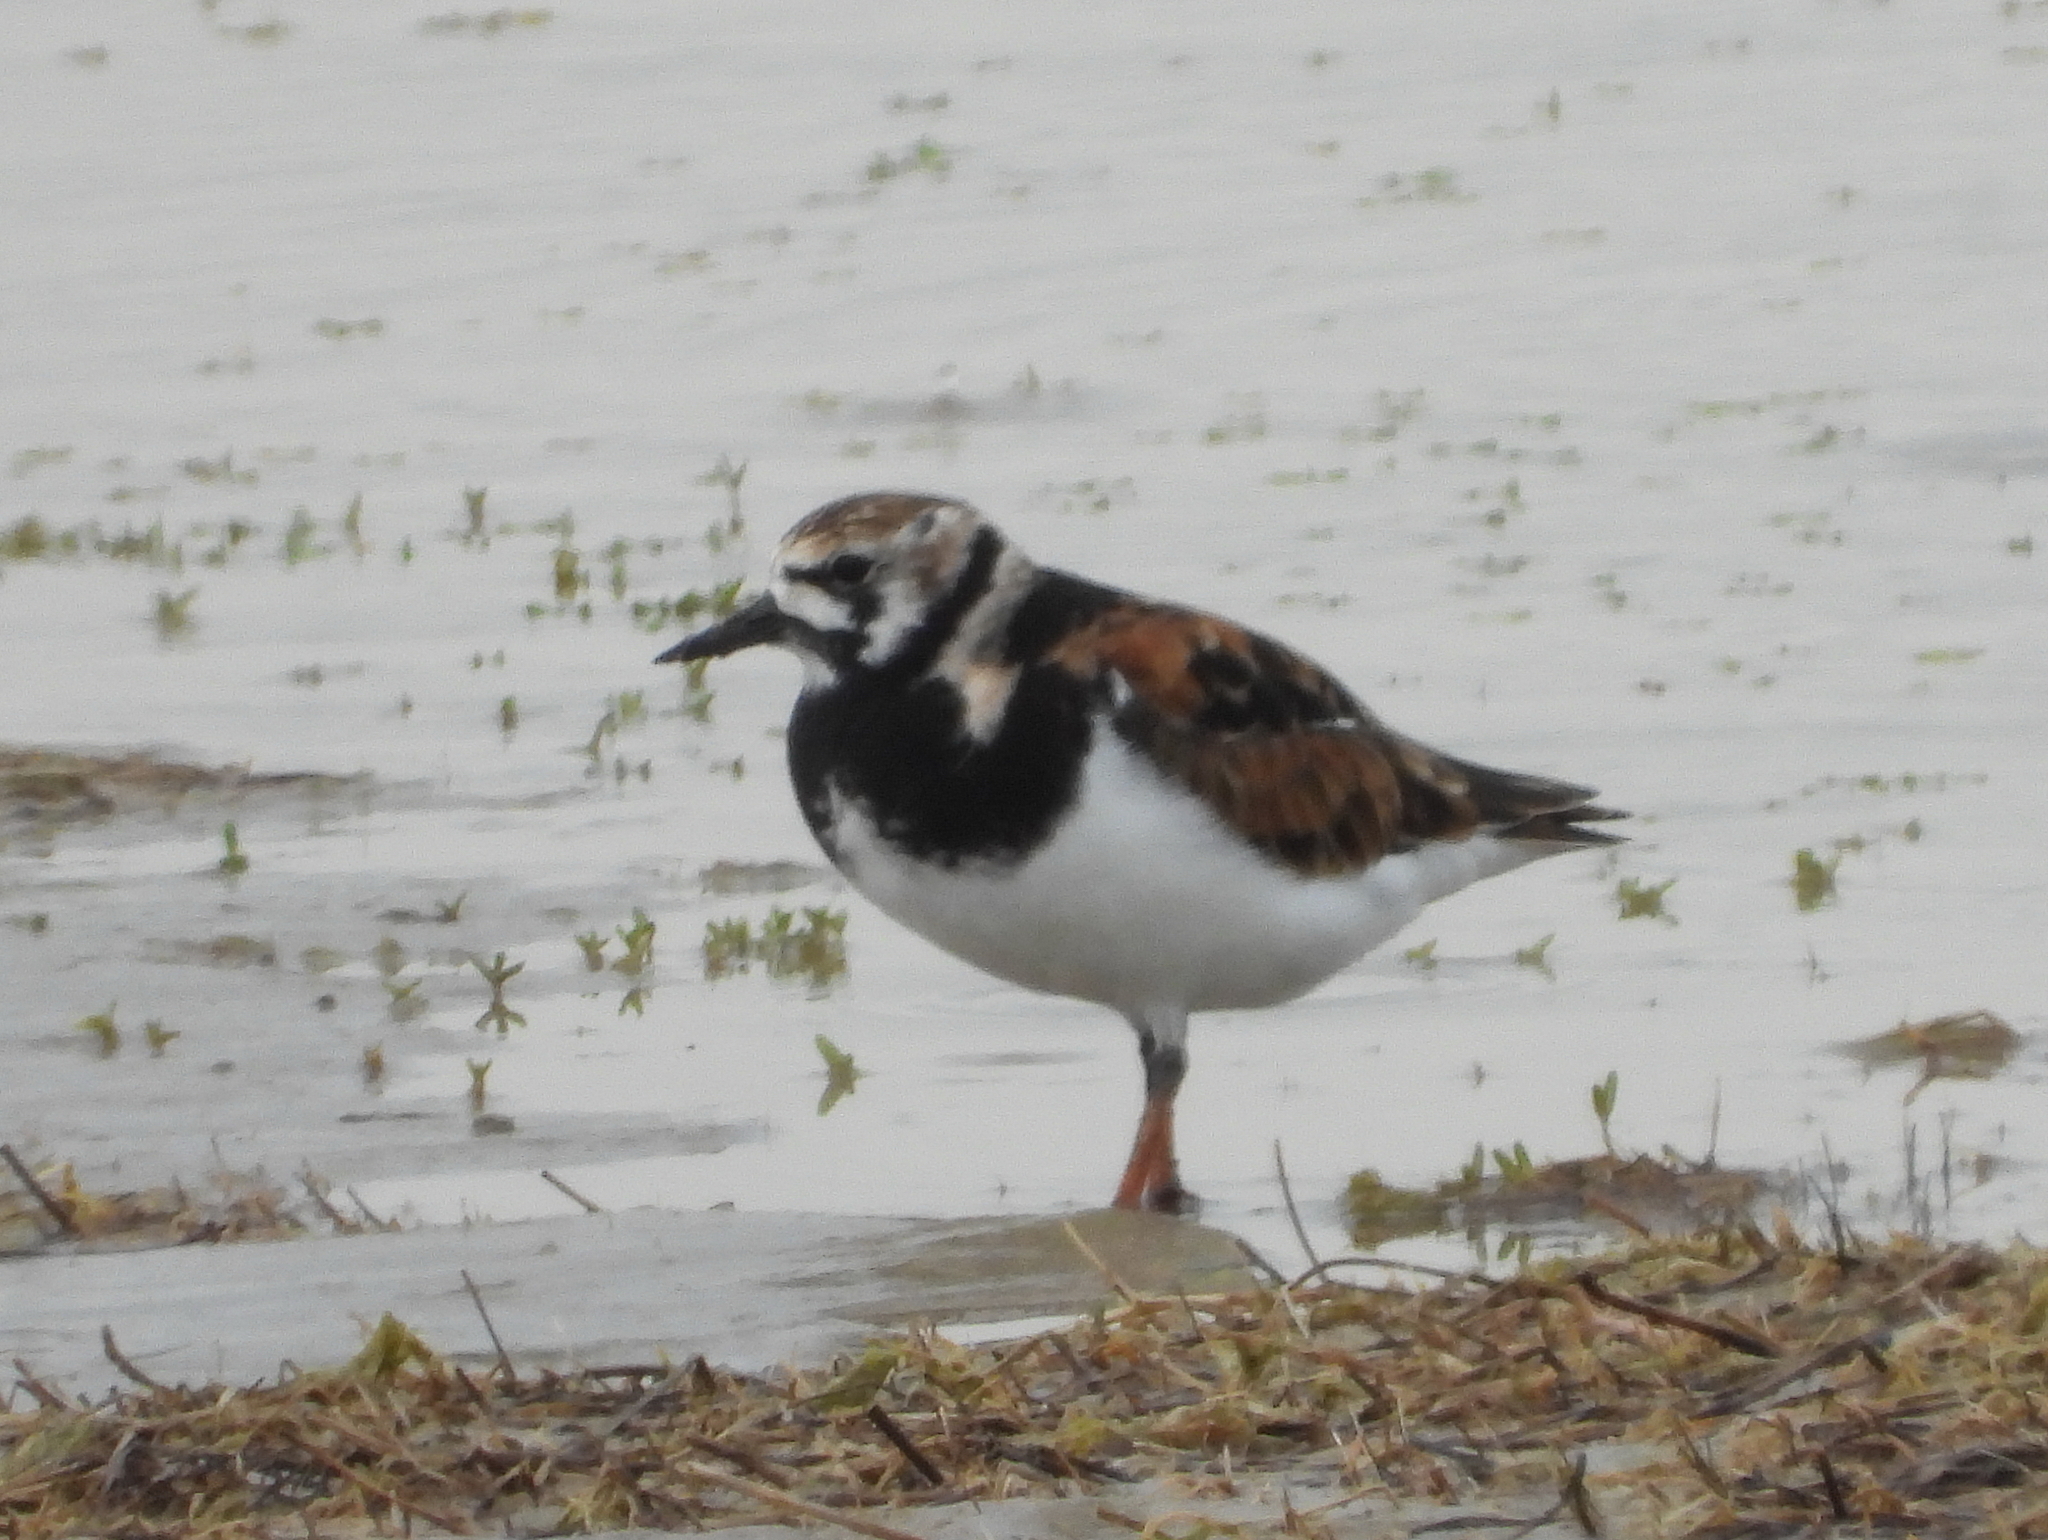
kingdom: Animalia
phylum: Chordata
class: Aves
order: Charadriiformes
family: Scolopacidae
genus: Arenaria
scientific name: Arenaria interpres
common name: Ruddy turnstone
